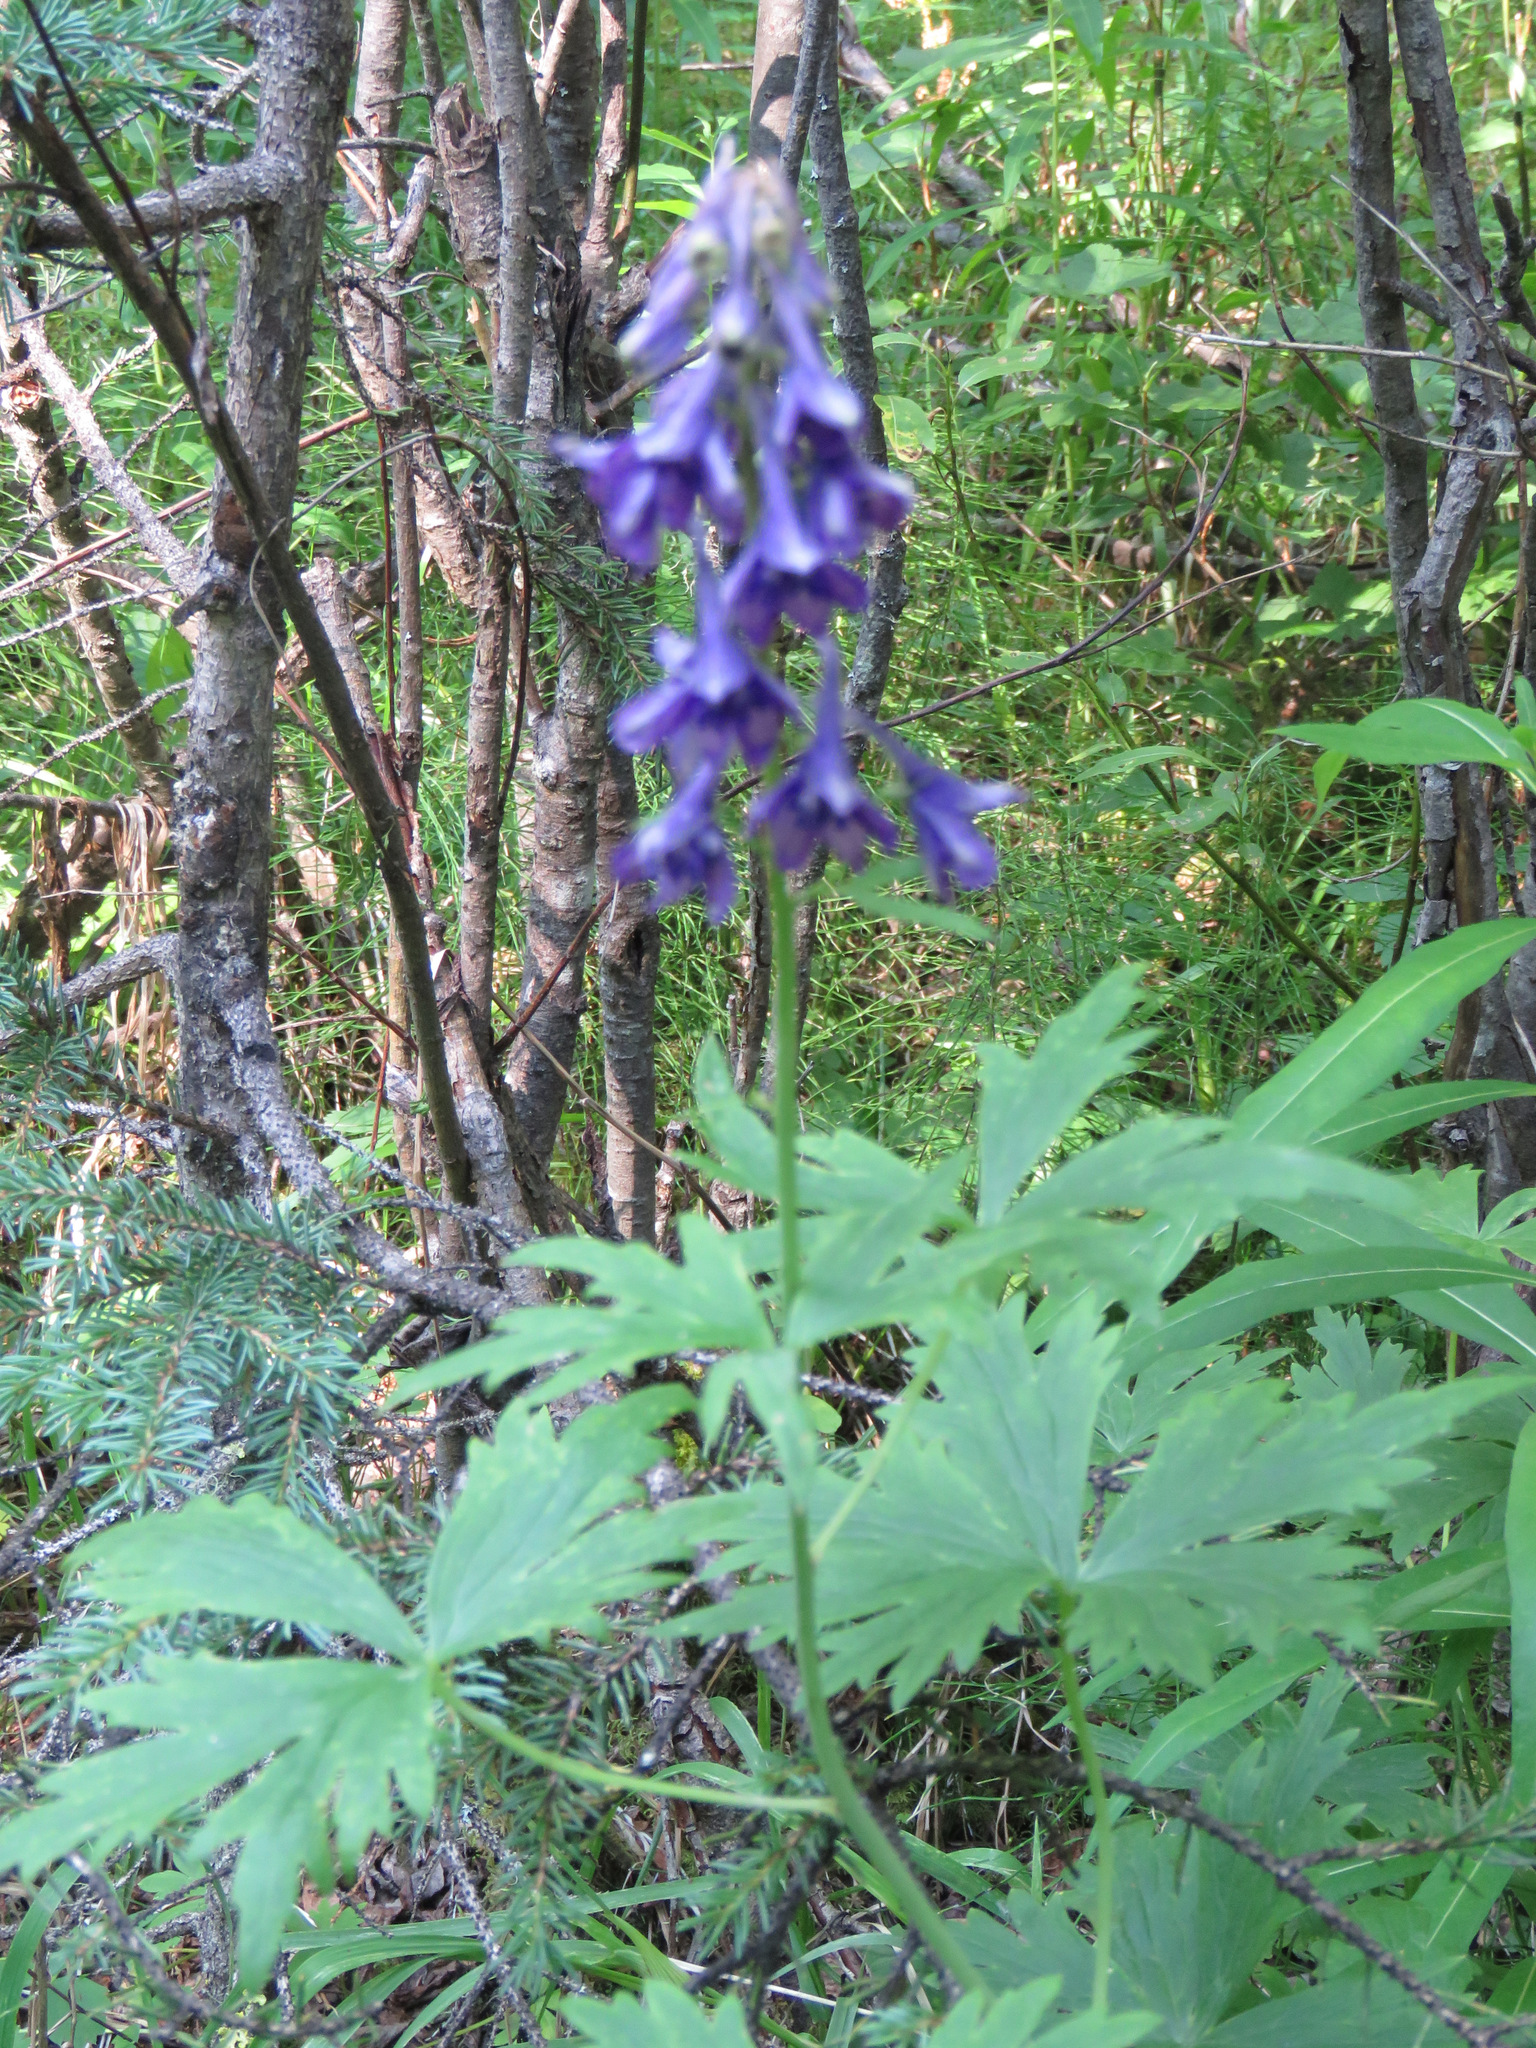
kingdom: Plantae
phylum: Tracheophyta
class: Magnoliopsida
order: Ranunculales
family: Ranunculaceae
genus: Delphinium
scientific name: Delphinium glaucum
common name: Brown's larkspur
